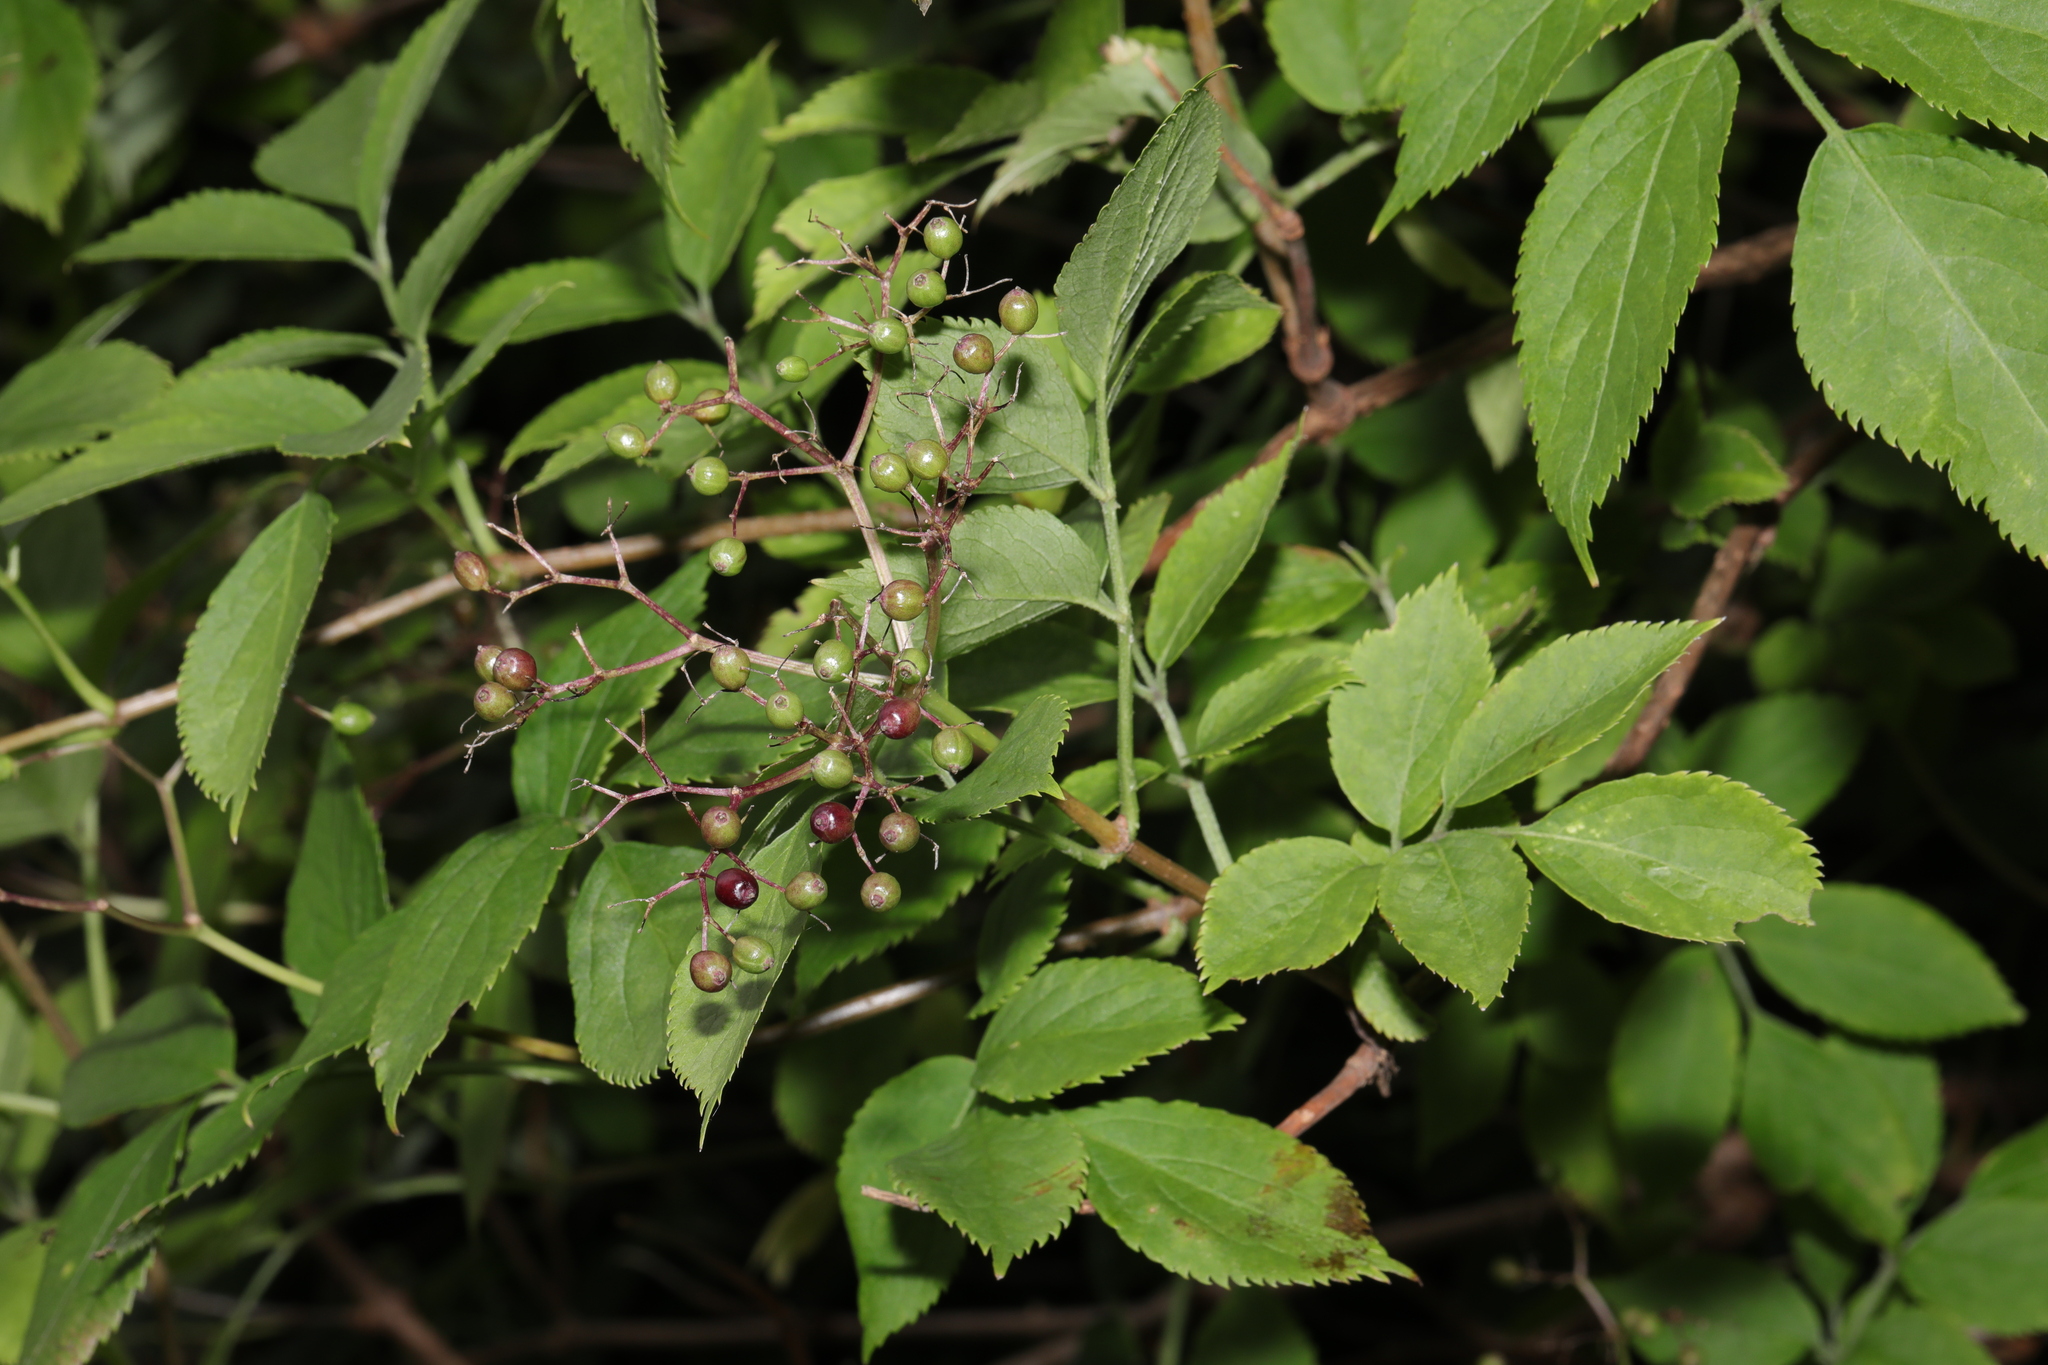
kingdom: Plantae
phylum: Tracheophyta
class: Magnoliopsida
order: Dipsacales
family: Viburnaceae
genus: Sambucus
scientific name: Sambucus nigra
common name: Elder
